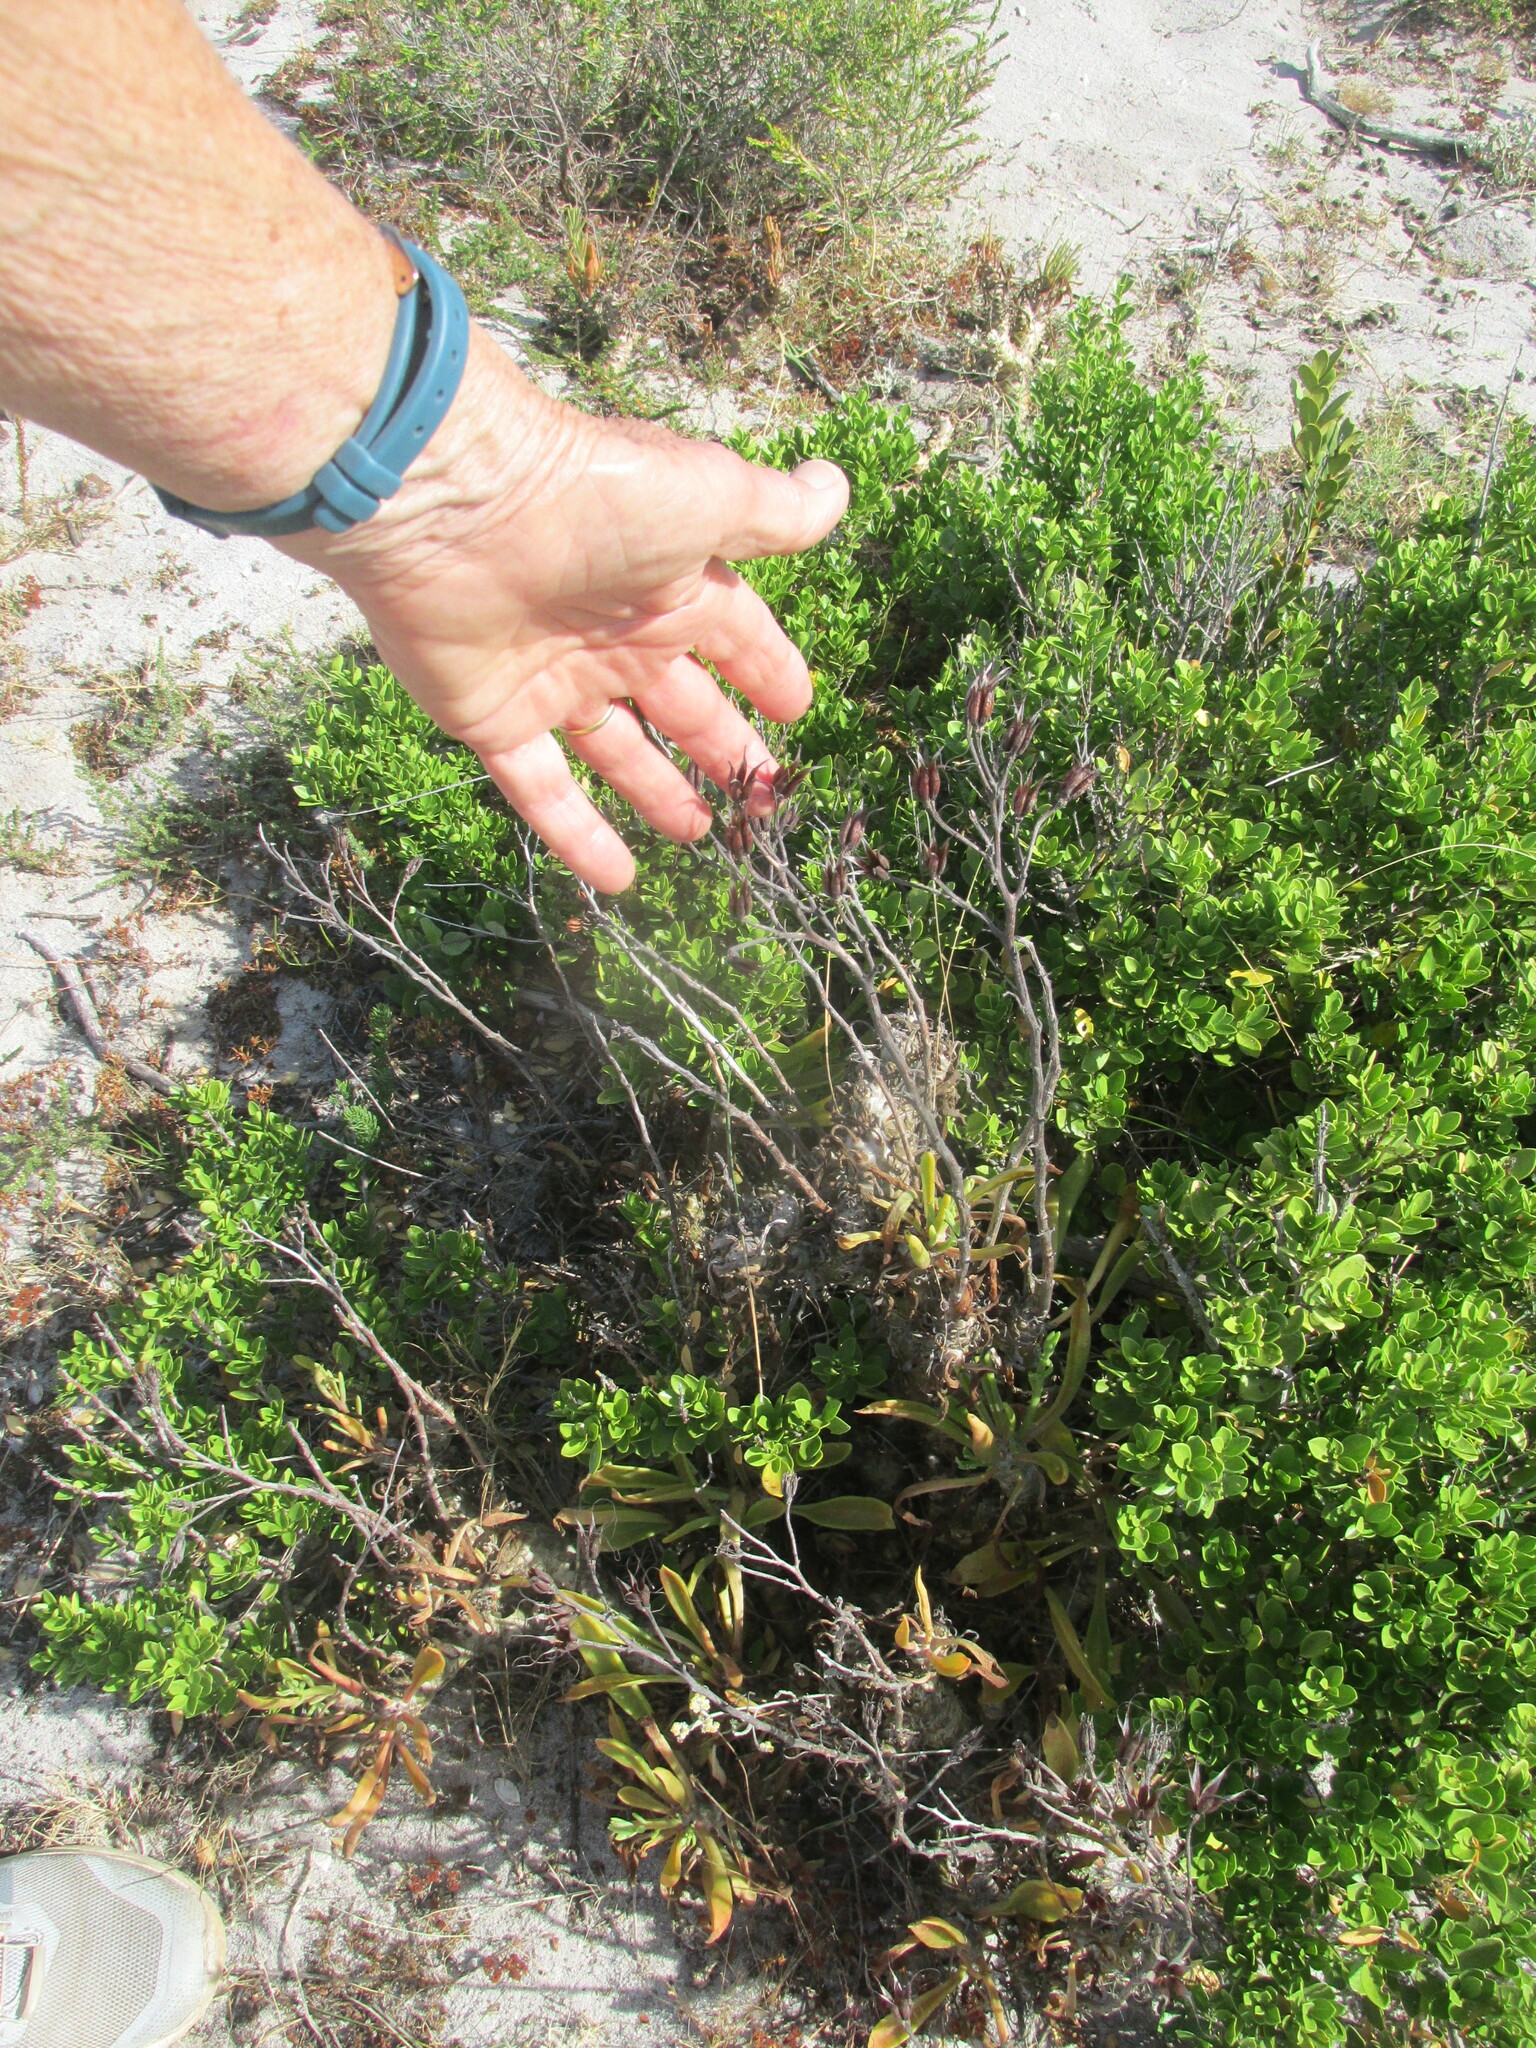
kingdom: Plantae
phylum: Tracheophyta
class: Magnoliopsida
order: Saxifragales
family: Crassulaceae
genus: Tylecodon
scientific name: Tylecodon grandiflorus
